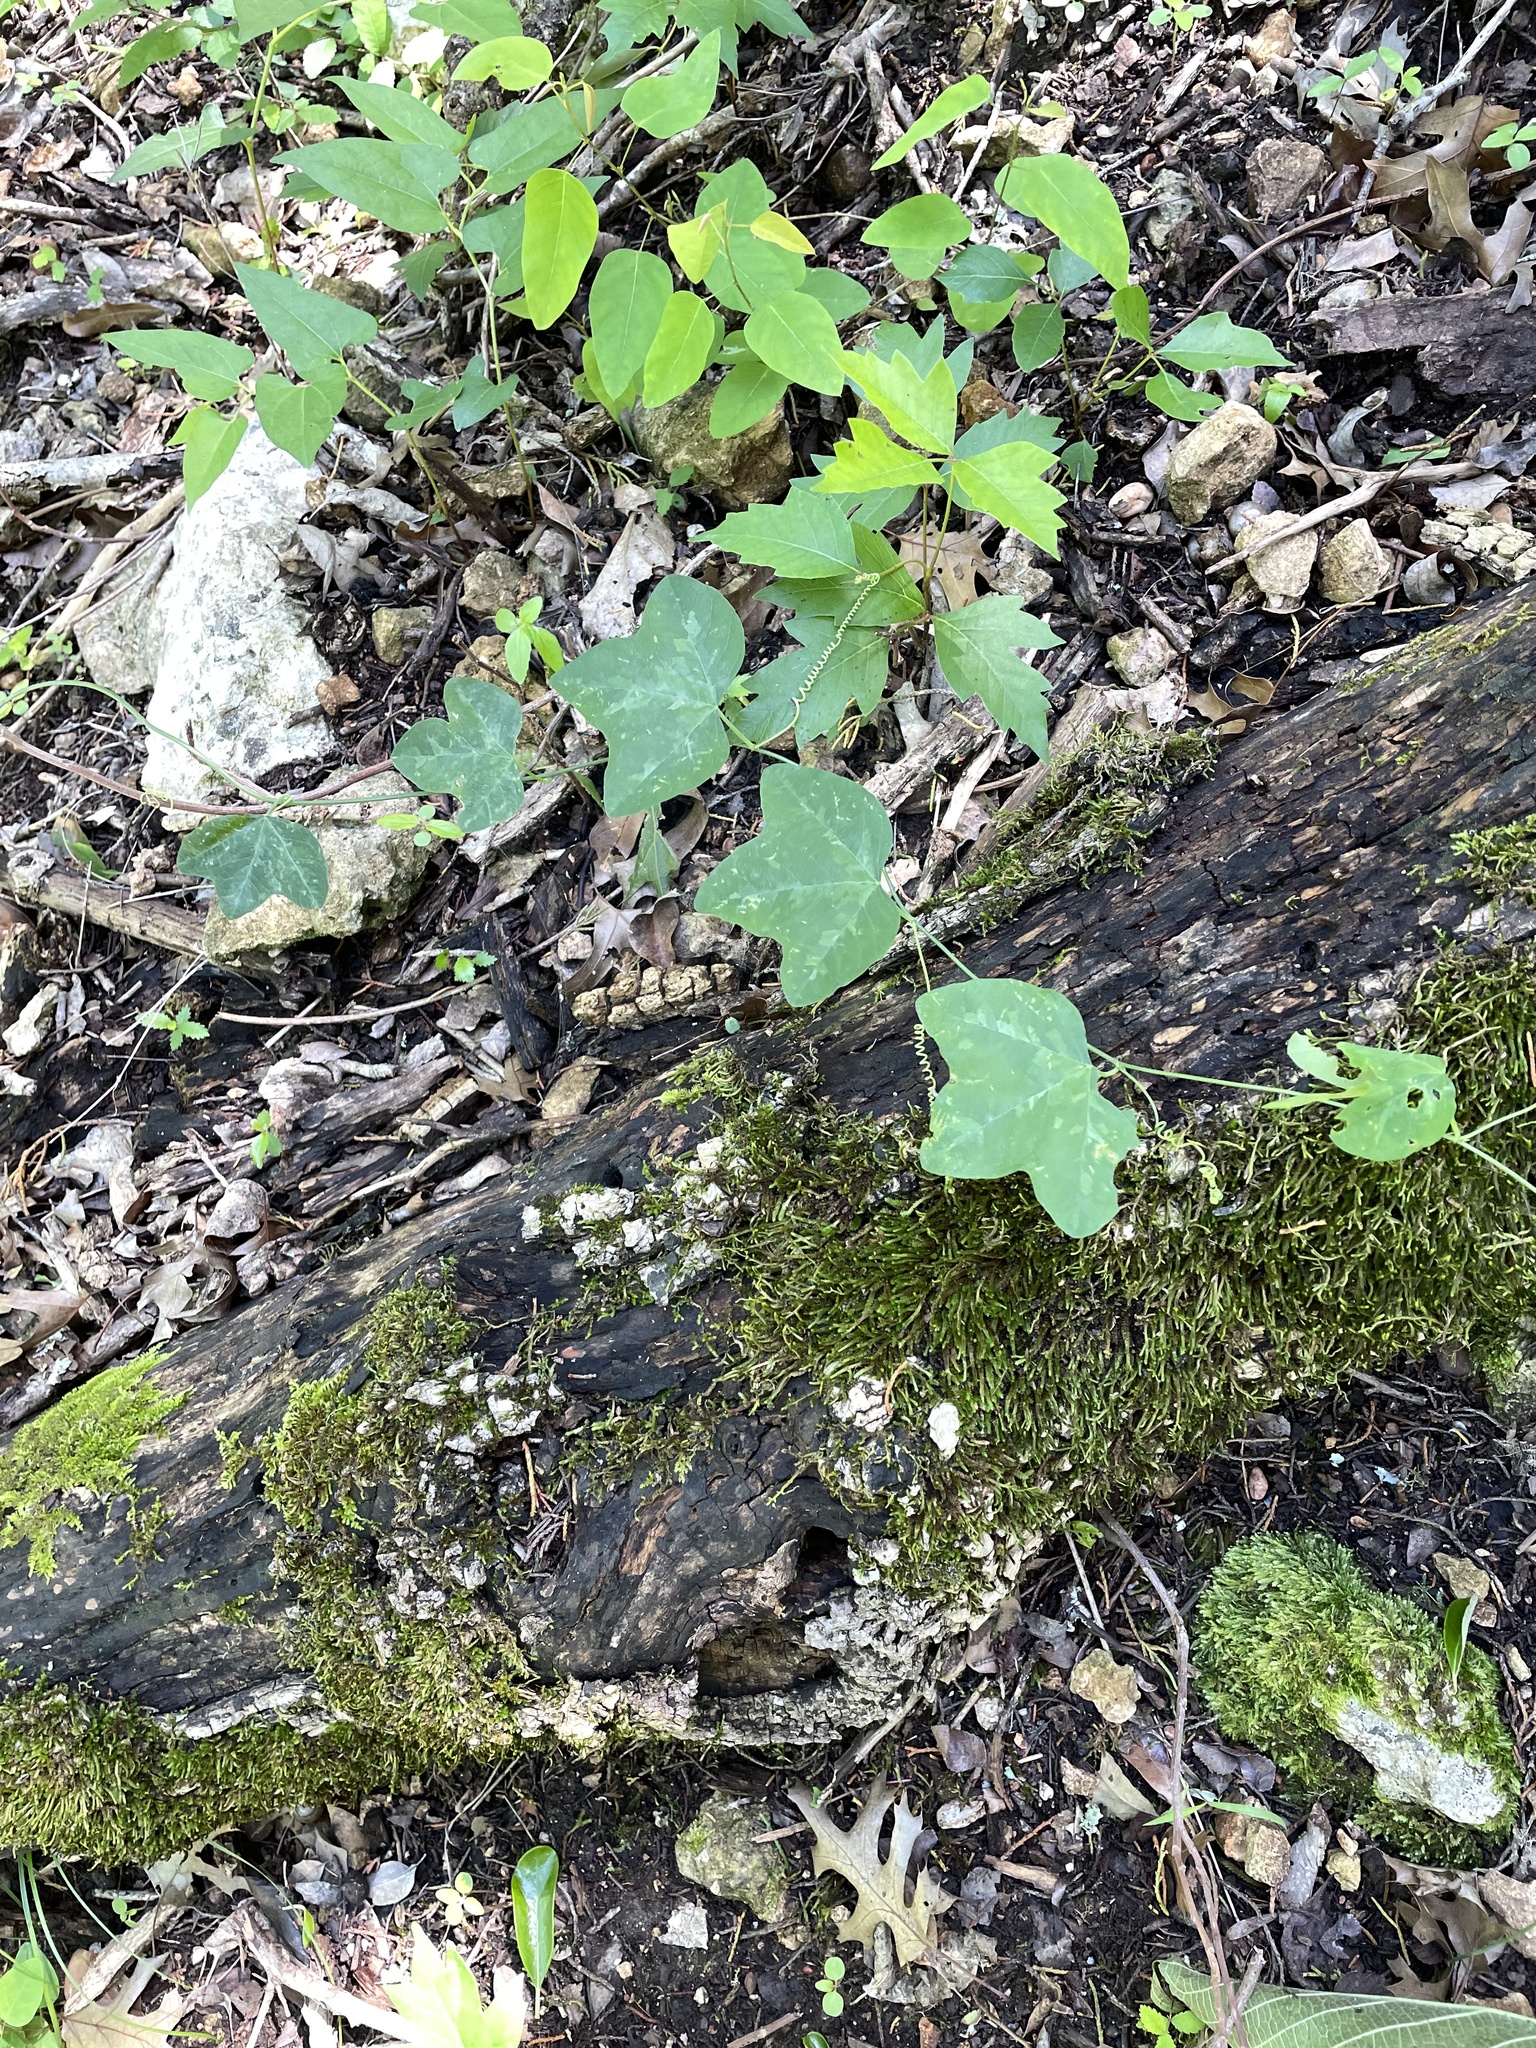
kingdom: Plantae
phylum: Tracheophyta
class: Magnoliopsida
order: Malpighiales
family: Passifloraceae
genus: Passiflora
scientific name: Passiflora lutea
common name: Yellow passionflower
